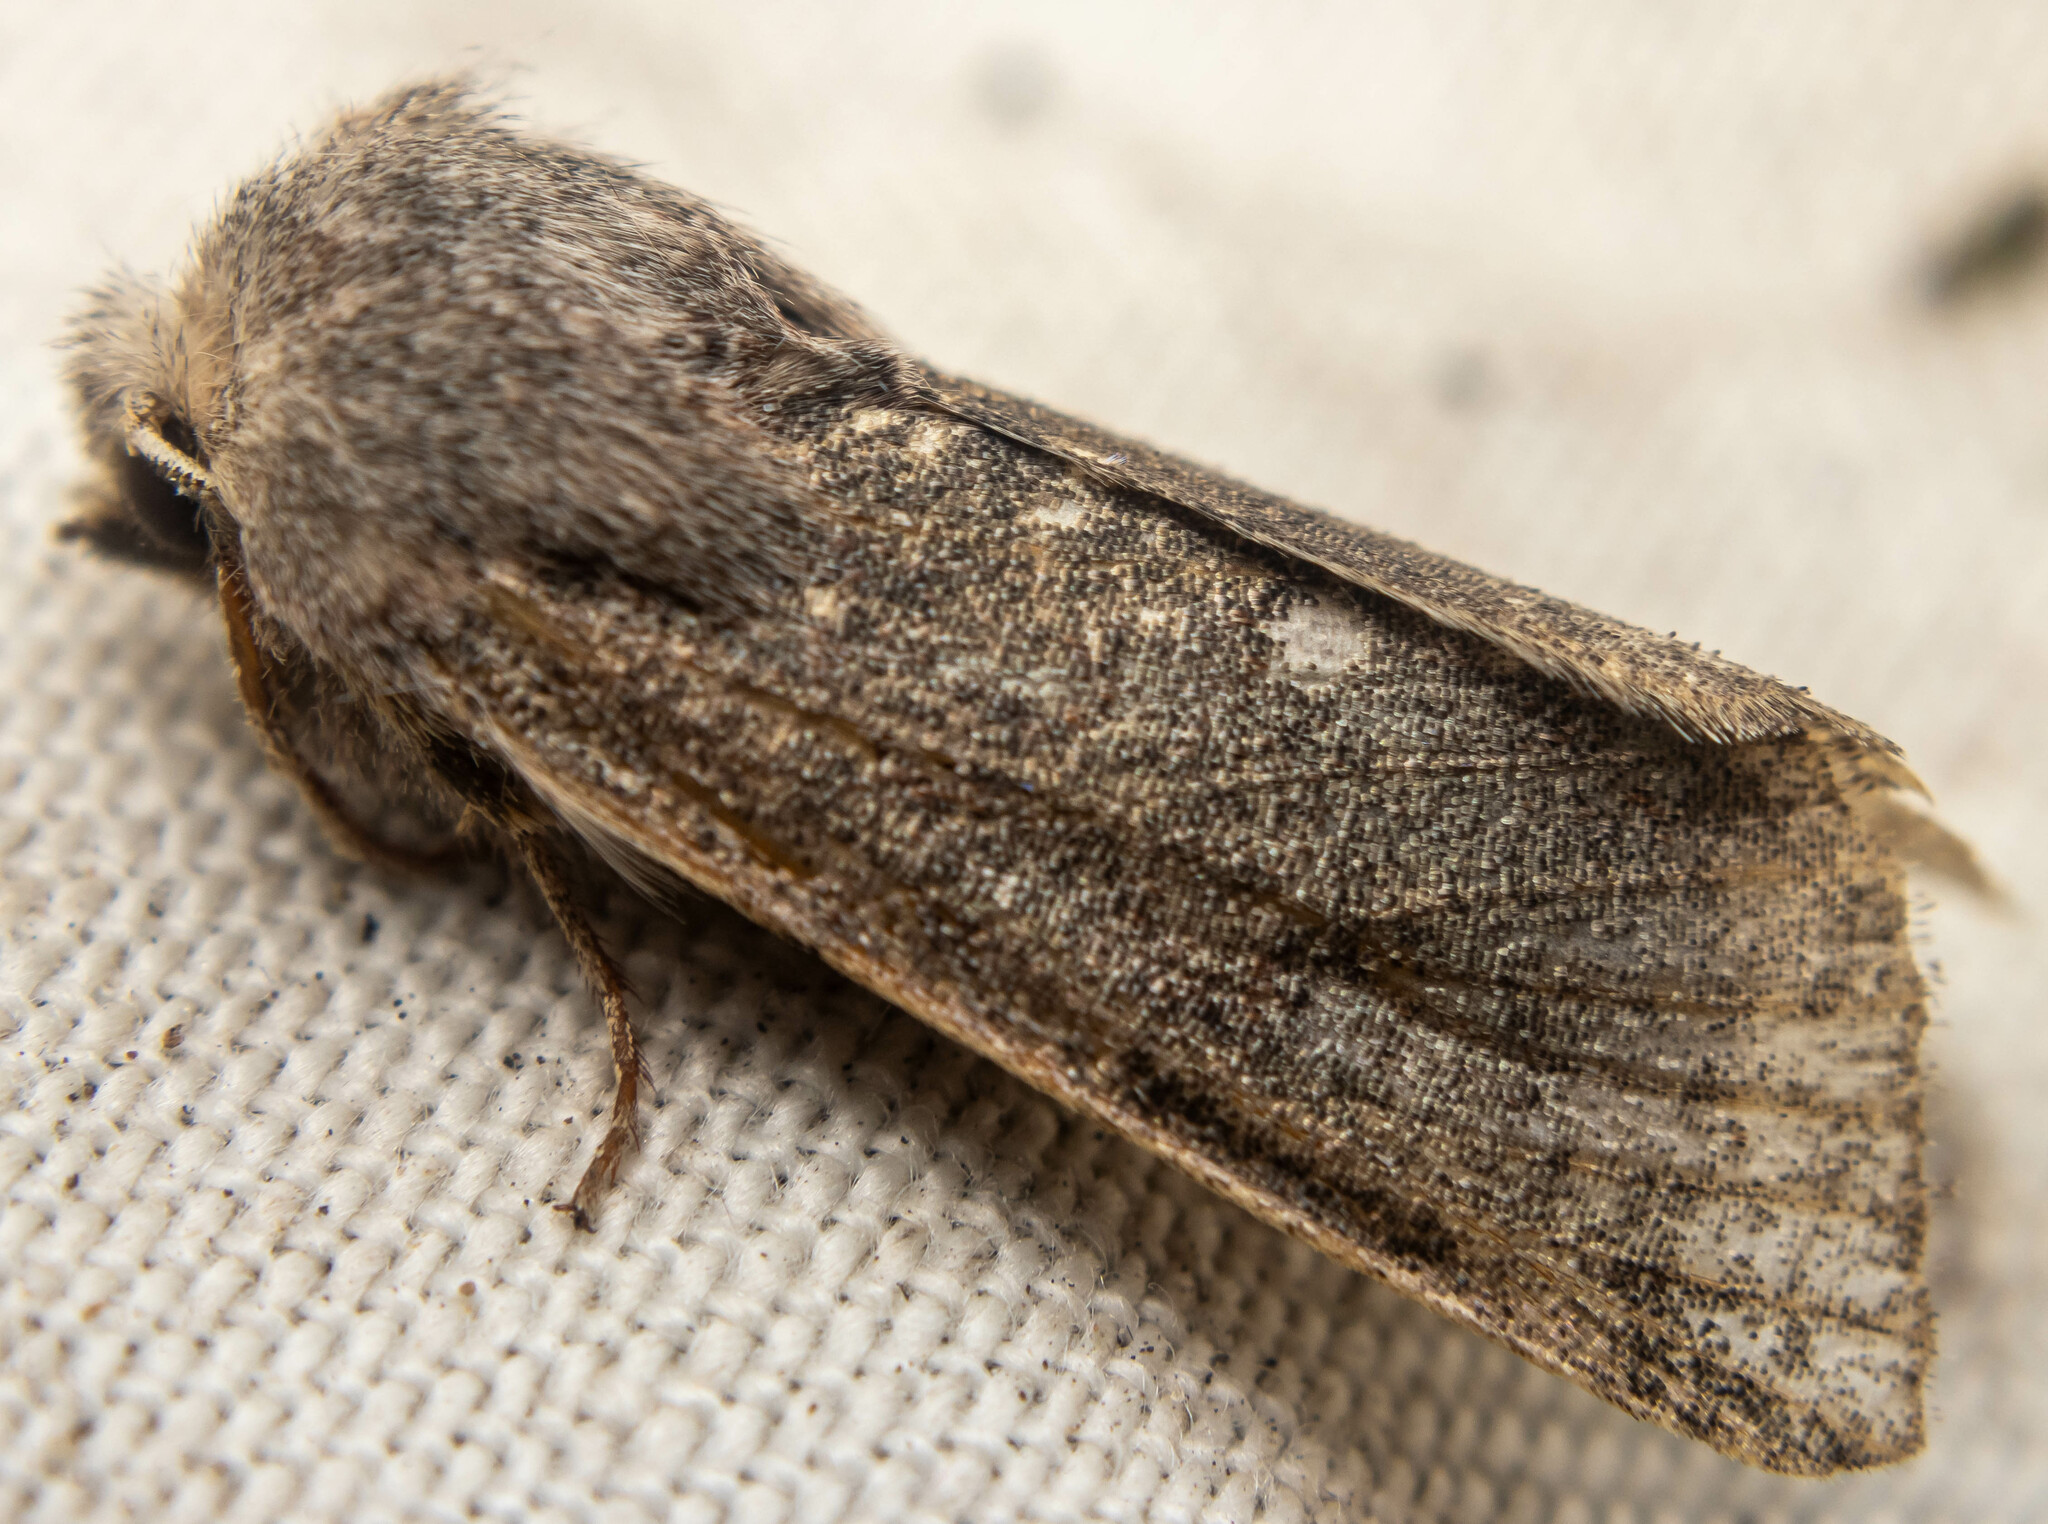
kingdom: Animalia
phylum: Arthropoda
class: Insecta
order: Lepidoptera
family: Noctuidae
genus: Orthosia
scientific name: Orthosia incerta
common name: Clouded drab
